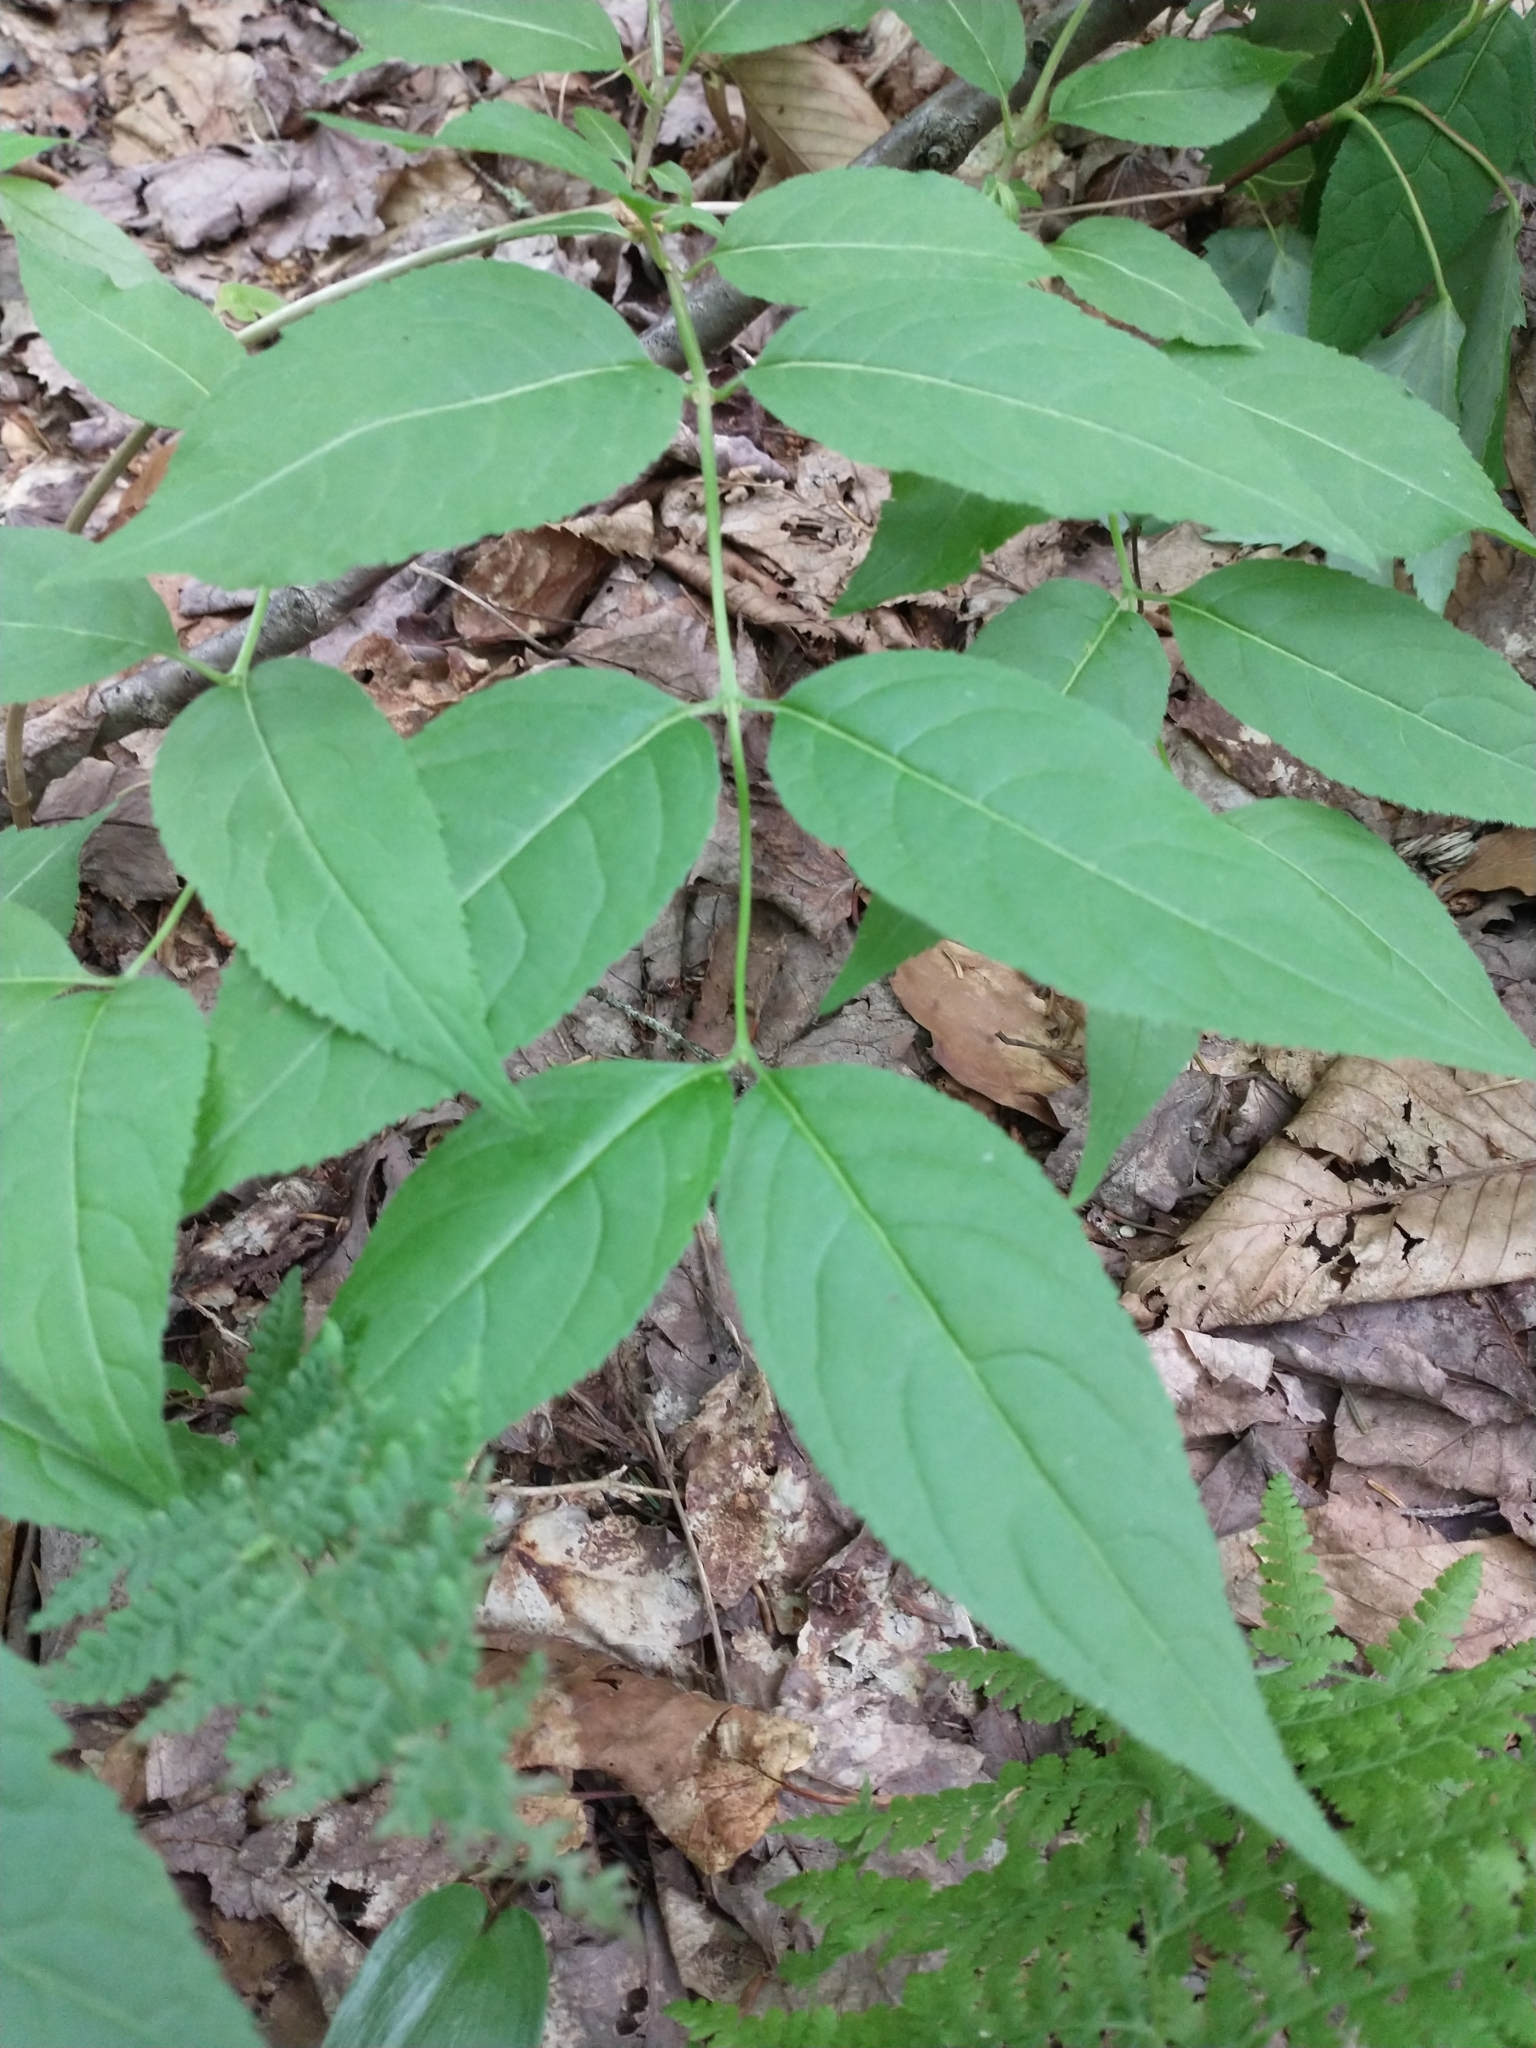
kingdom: Plantae
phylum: Tracheophyta
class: Magnoliopsida
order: Dipsacales
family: Caprifoliaceae
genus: Diervilla
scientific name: Diervilla lonicera
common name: Bush-honeysuckle
